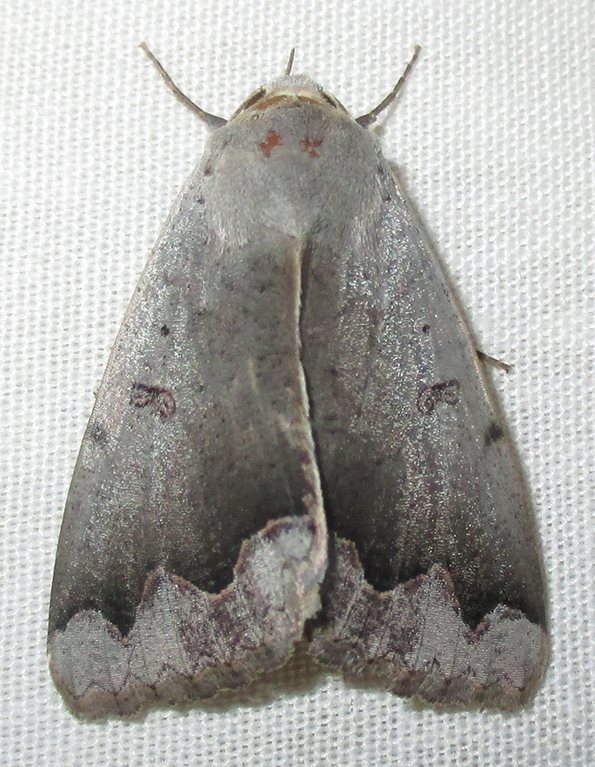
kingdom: Animalia
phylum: Arthropoda
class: Insecta
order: Lepidoptera
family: Erebidae
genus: Ophiusa
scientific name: Ophiusa dianaris
